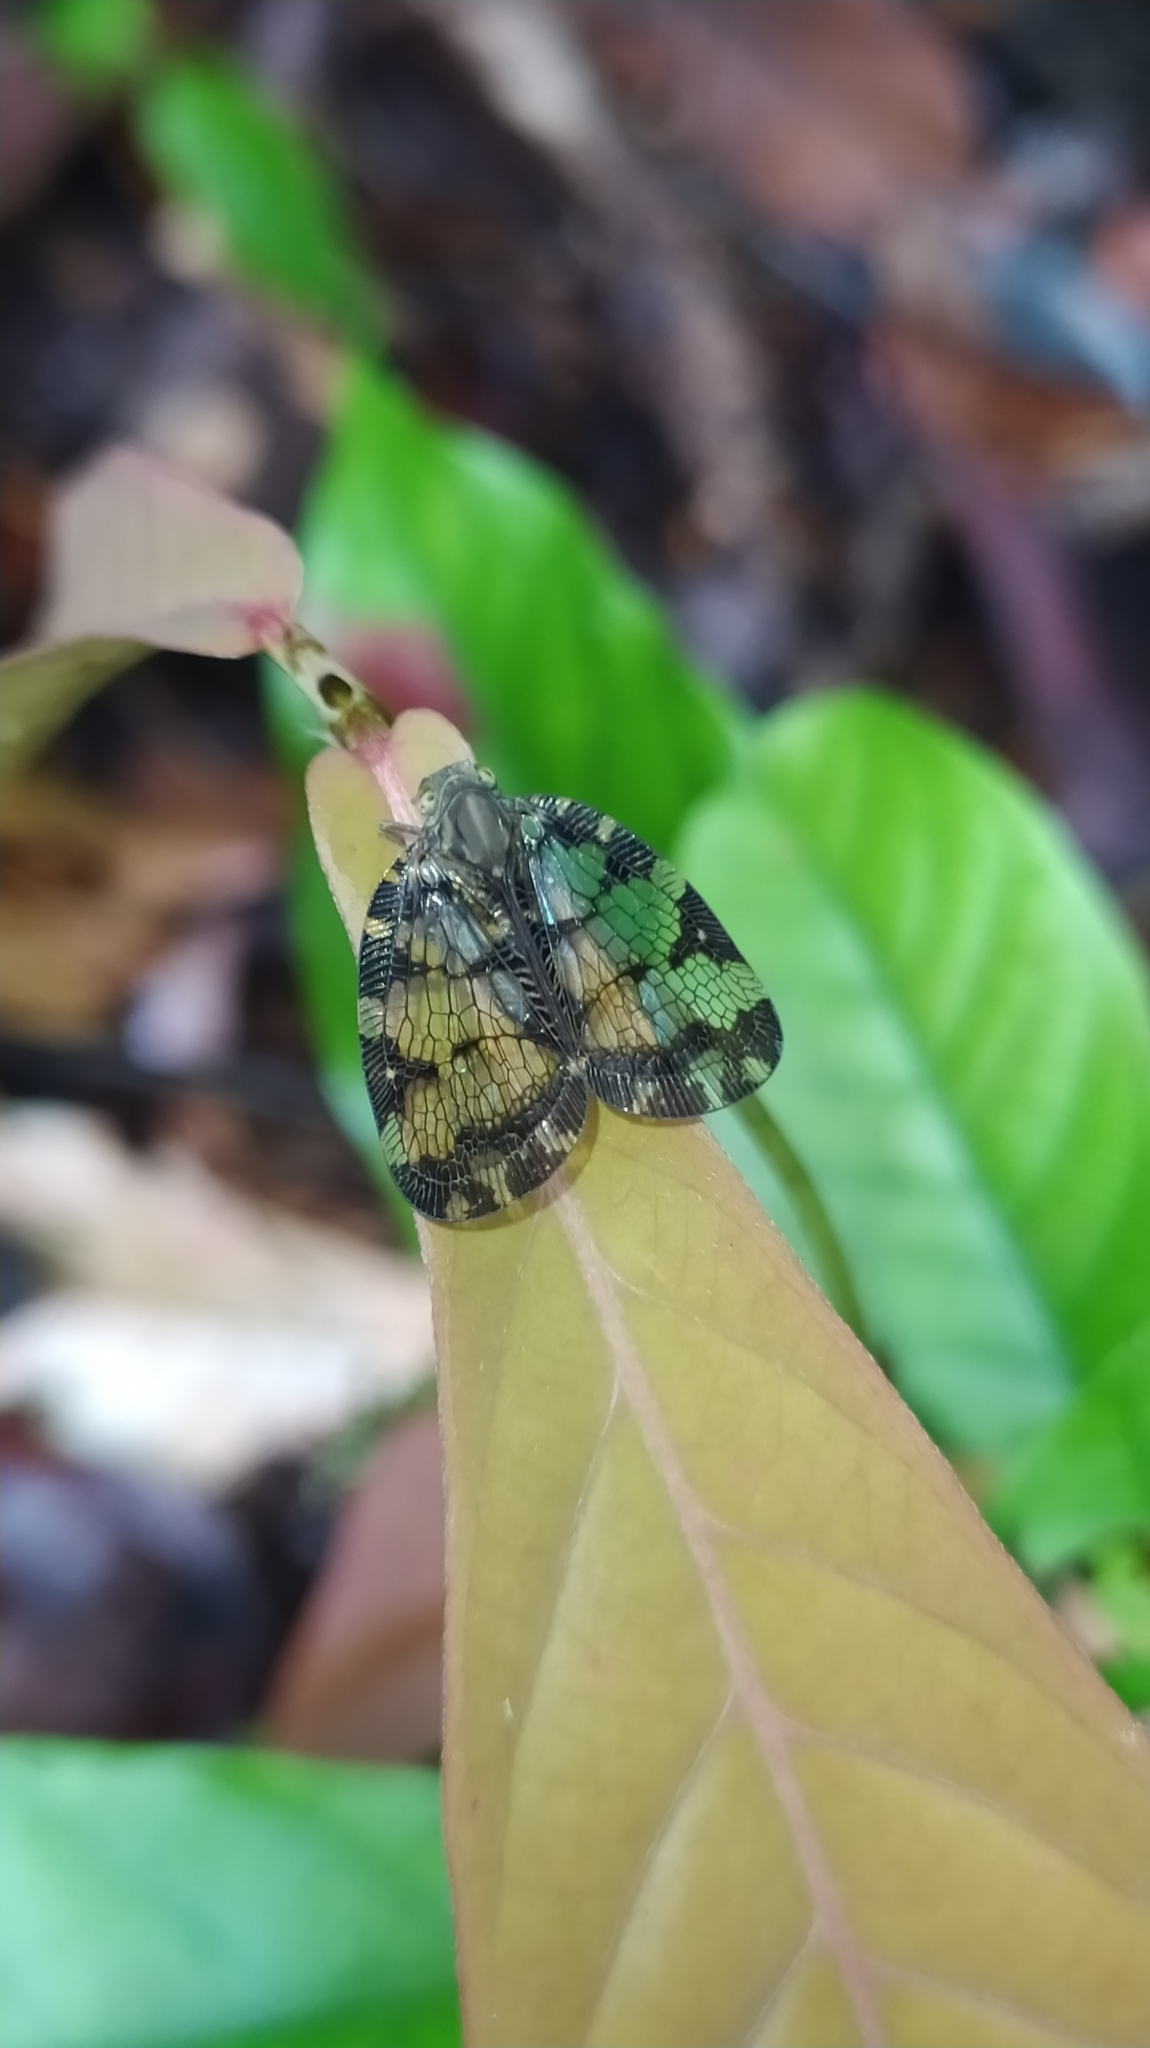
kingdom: Animalia
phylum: Arthropoda
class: Insecta
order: Hemiptera
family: Nogodinidae
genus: Nogodina
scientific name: Nogodina reticulata
